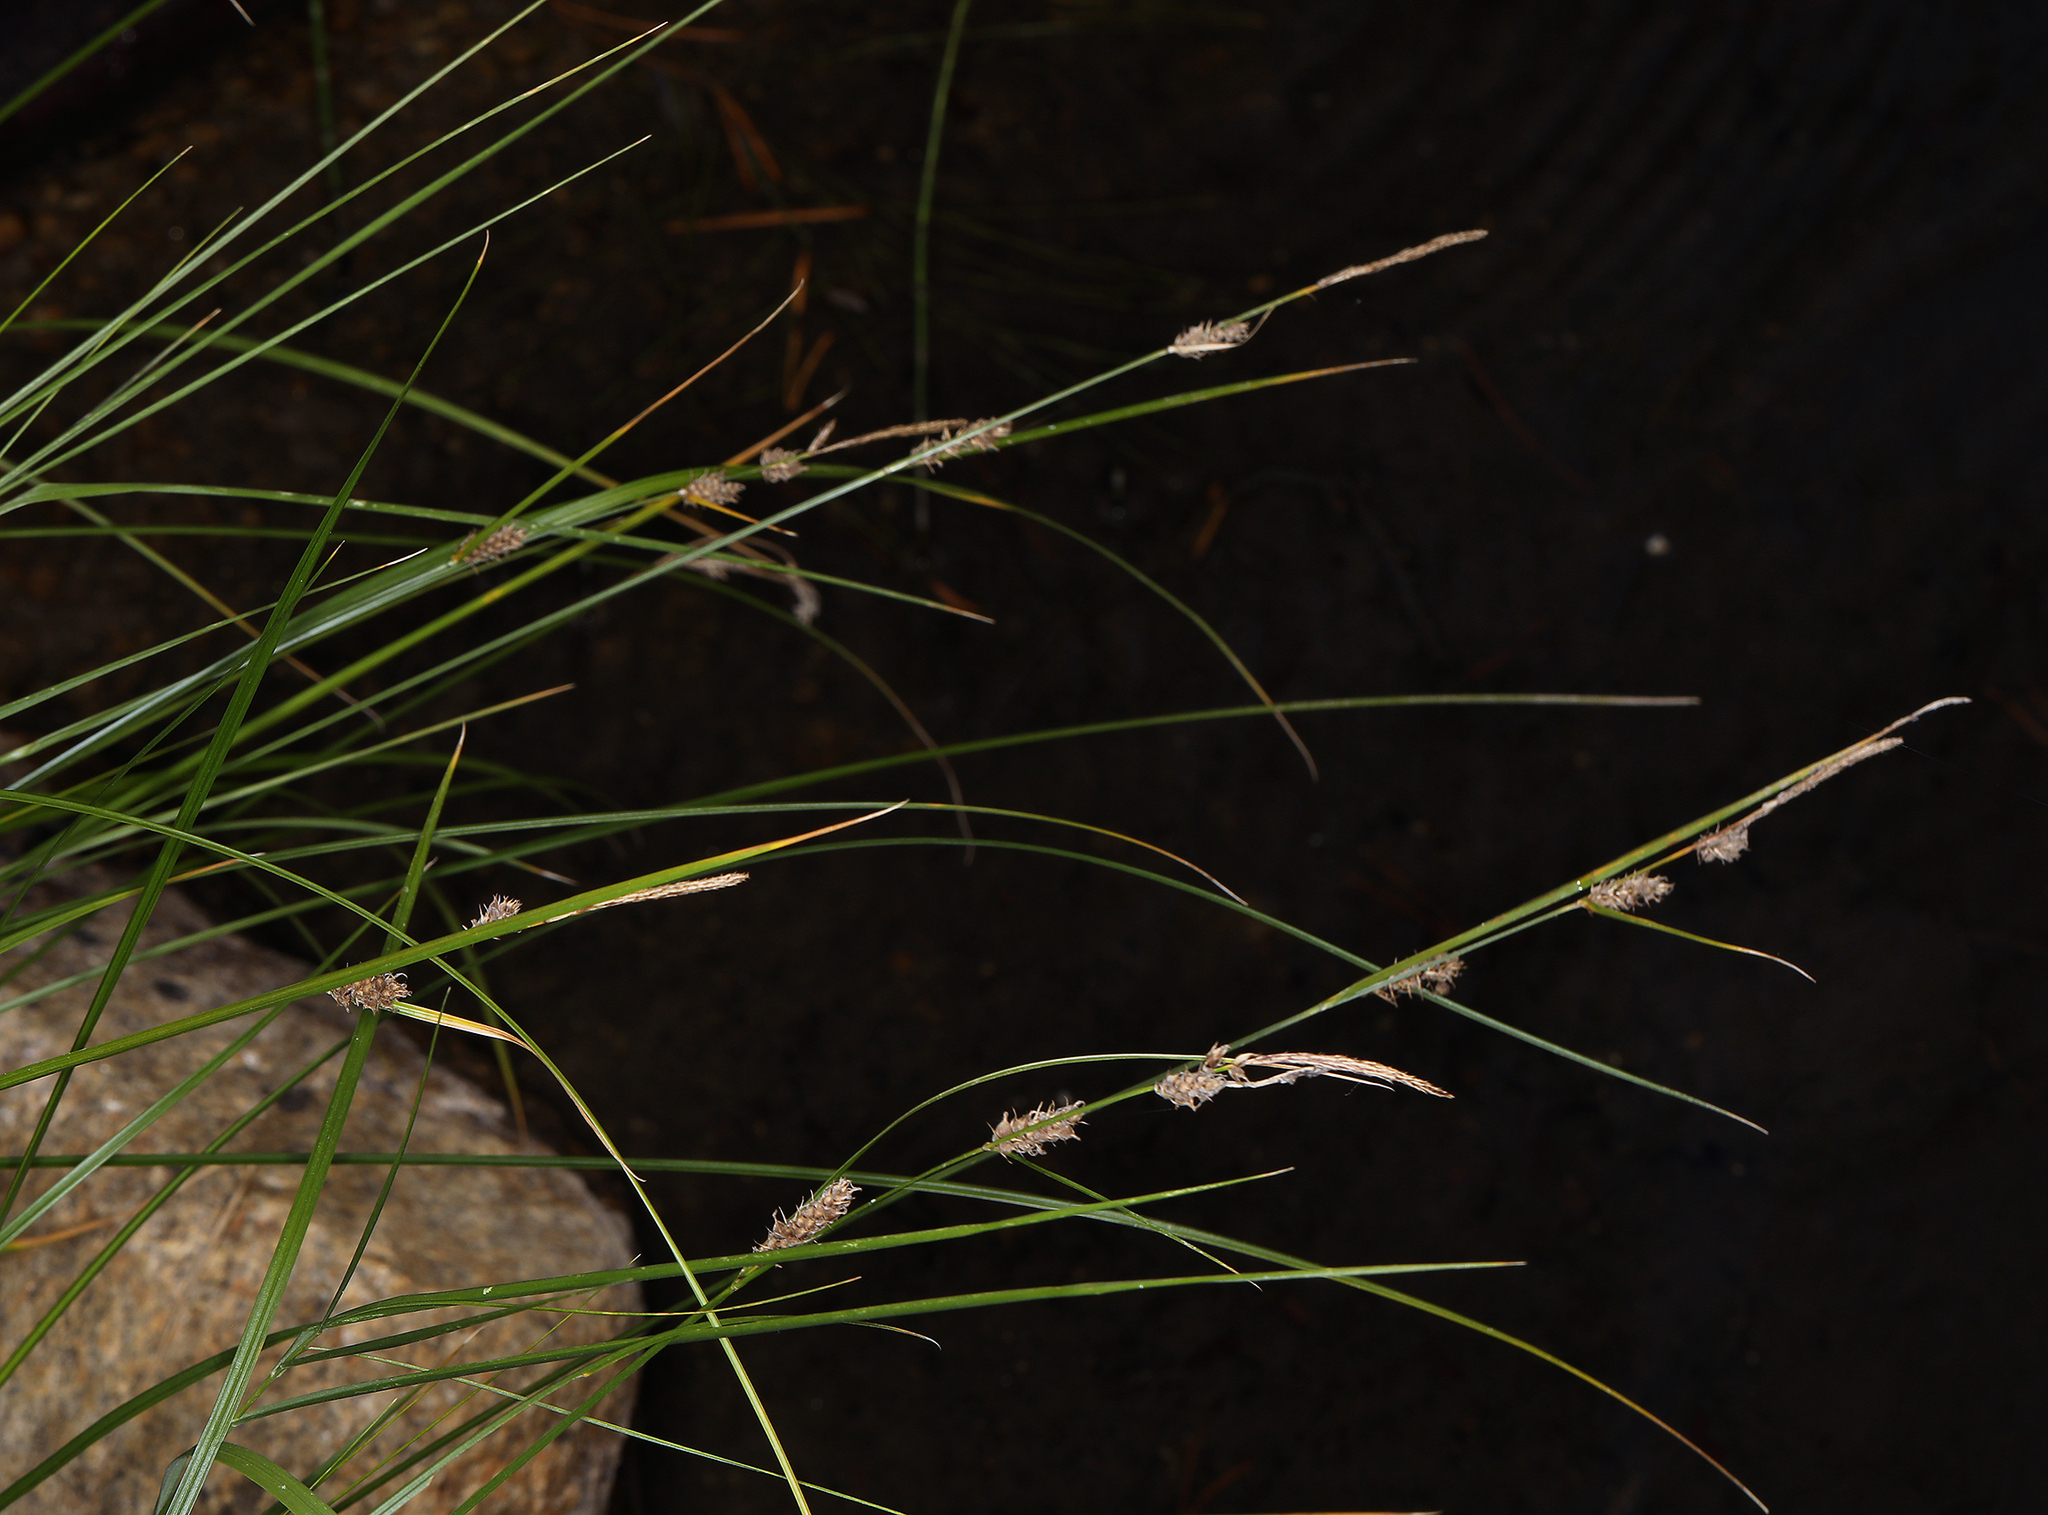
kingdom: Plantae
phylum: Tracheophyta
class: Liliopsida
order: Poales
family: Cyperaceae
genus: Carex
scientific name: Carex pellita
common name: Woolly sedge
